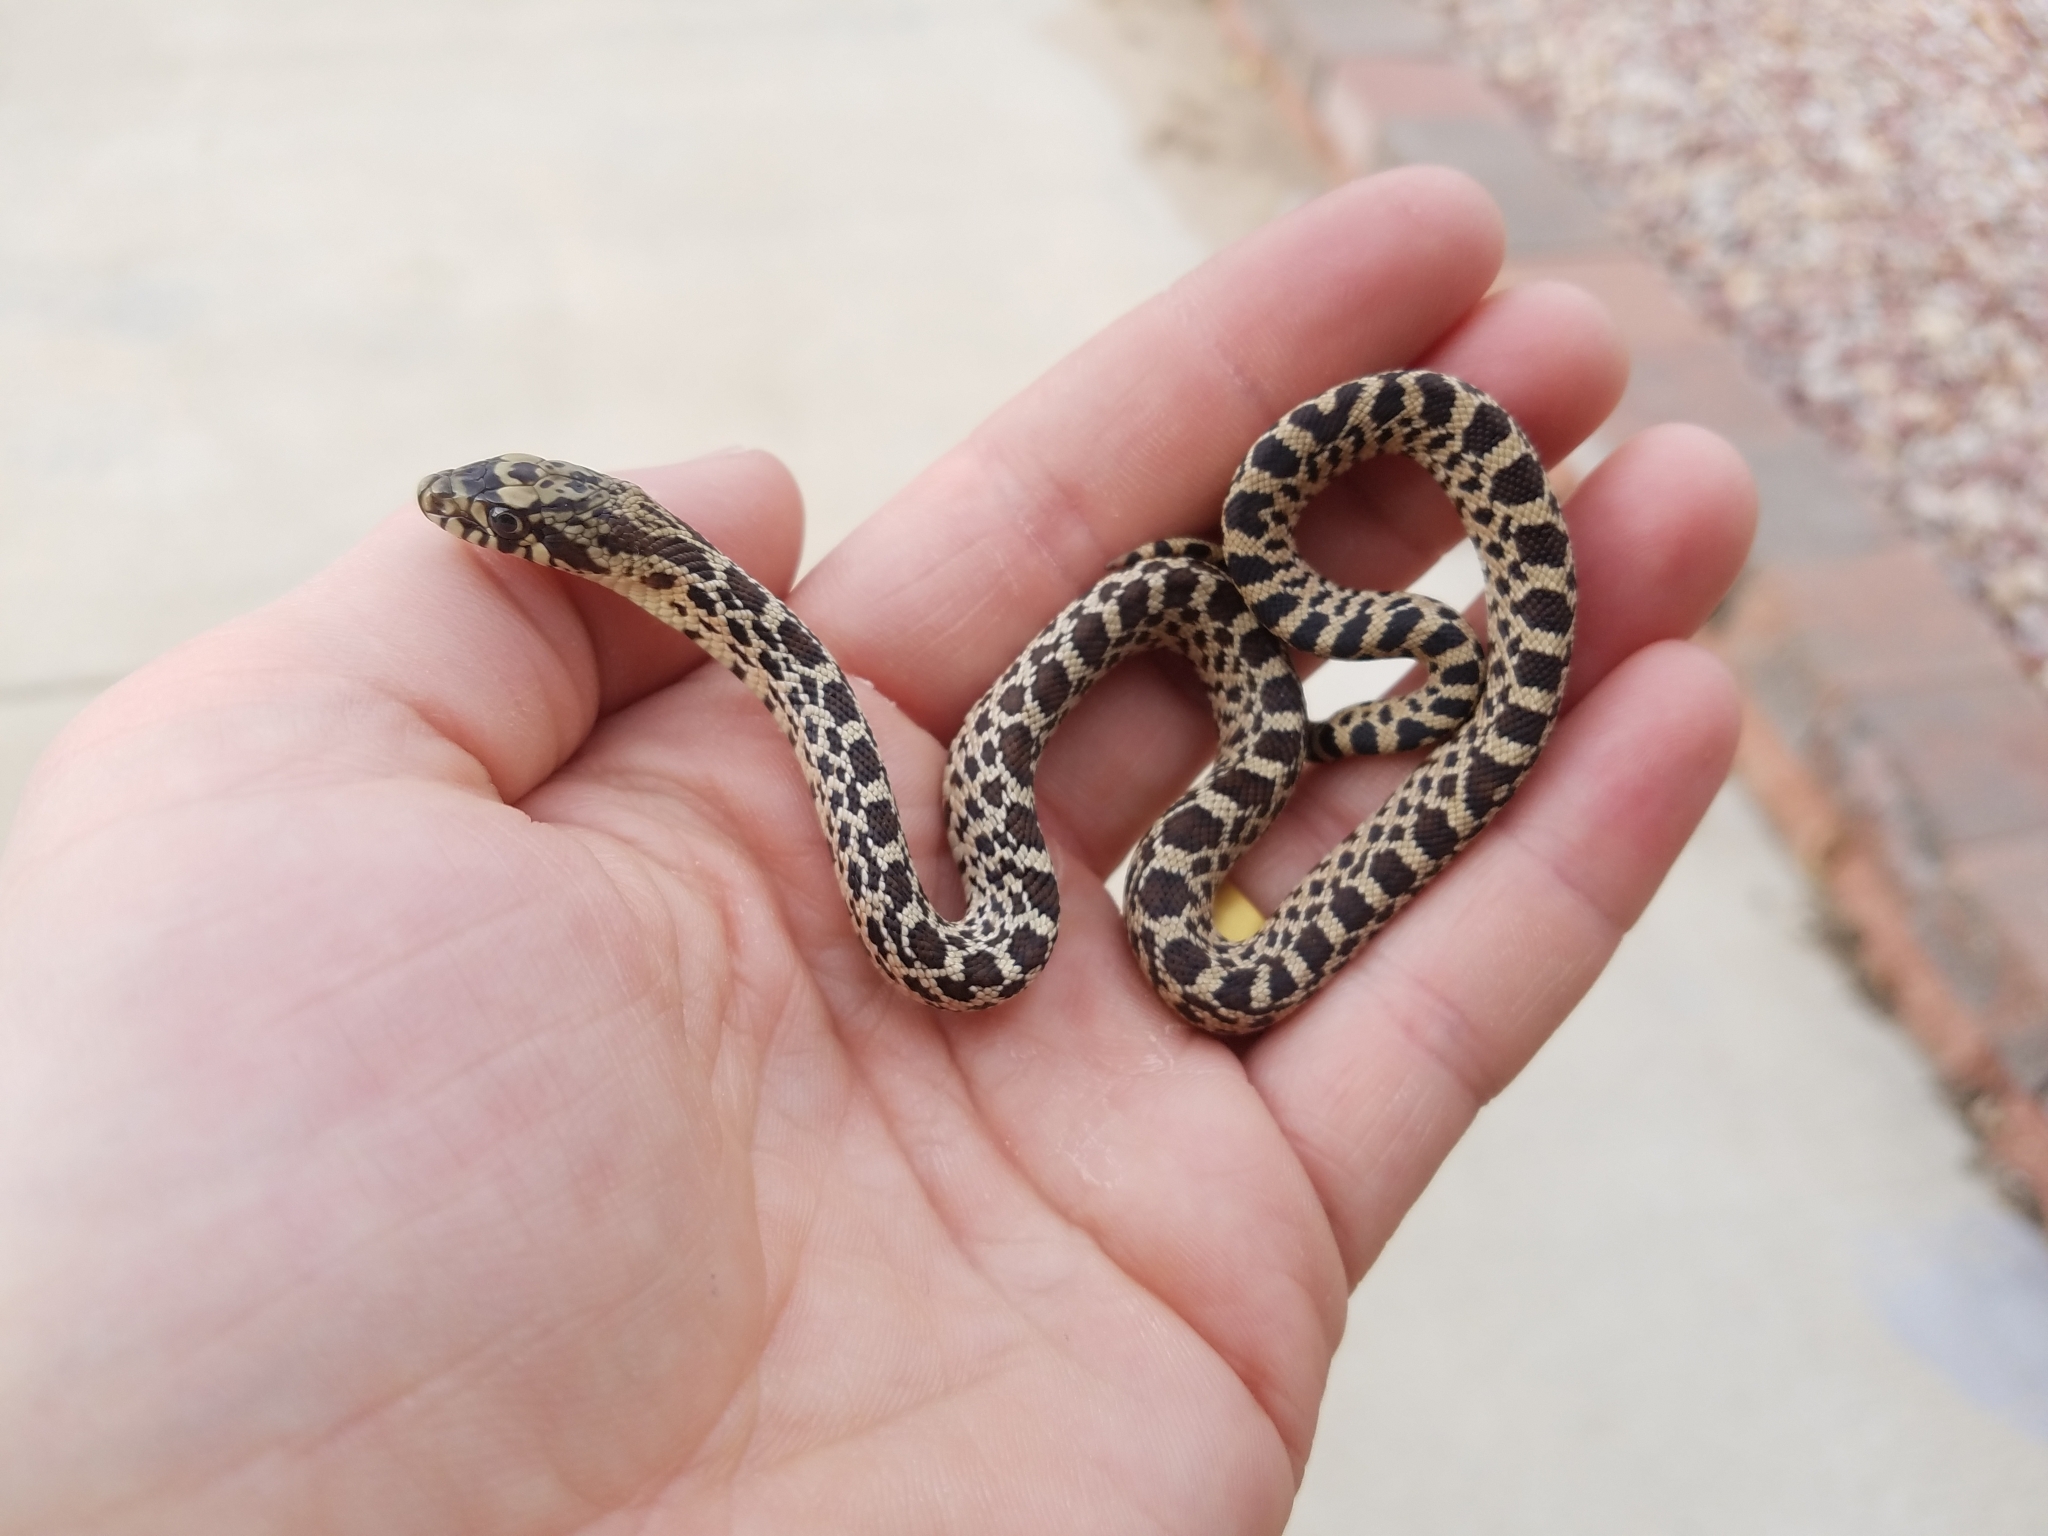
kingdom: Animalia
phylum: Chordata
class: Squamata
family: Colubridae
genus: Pituophis
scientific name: Pituophis catenifer
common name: Gopher snake
